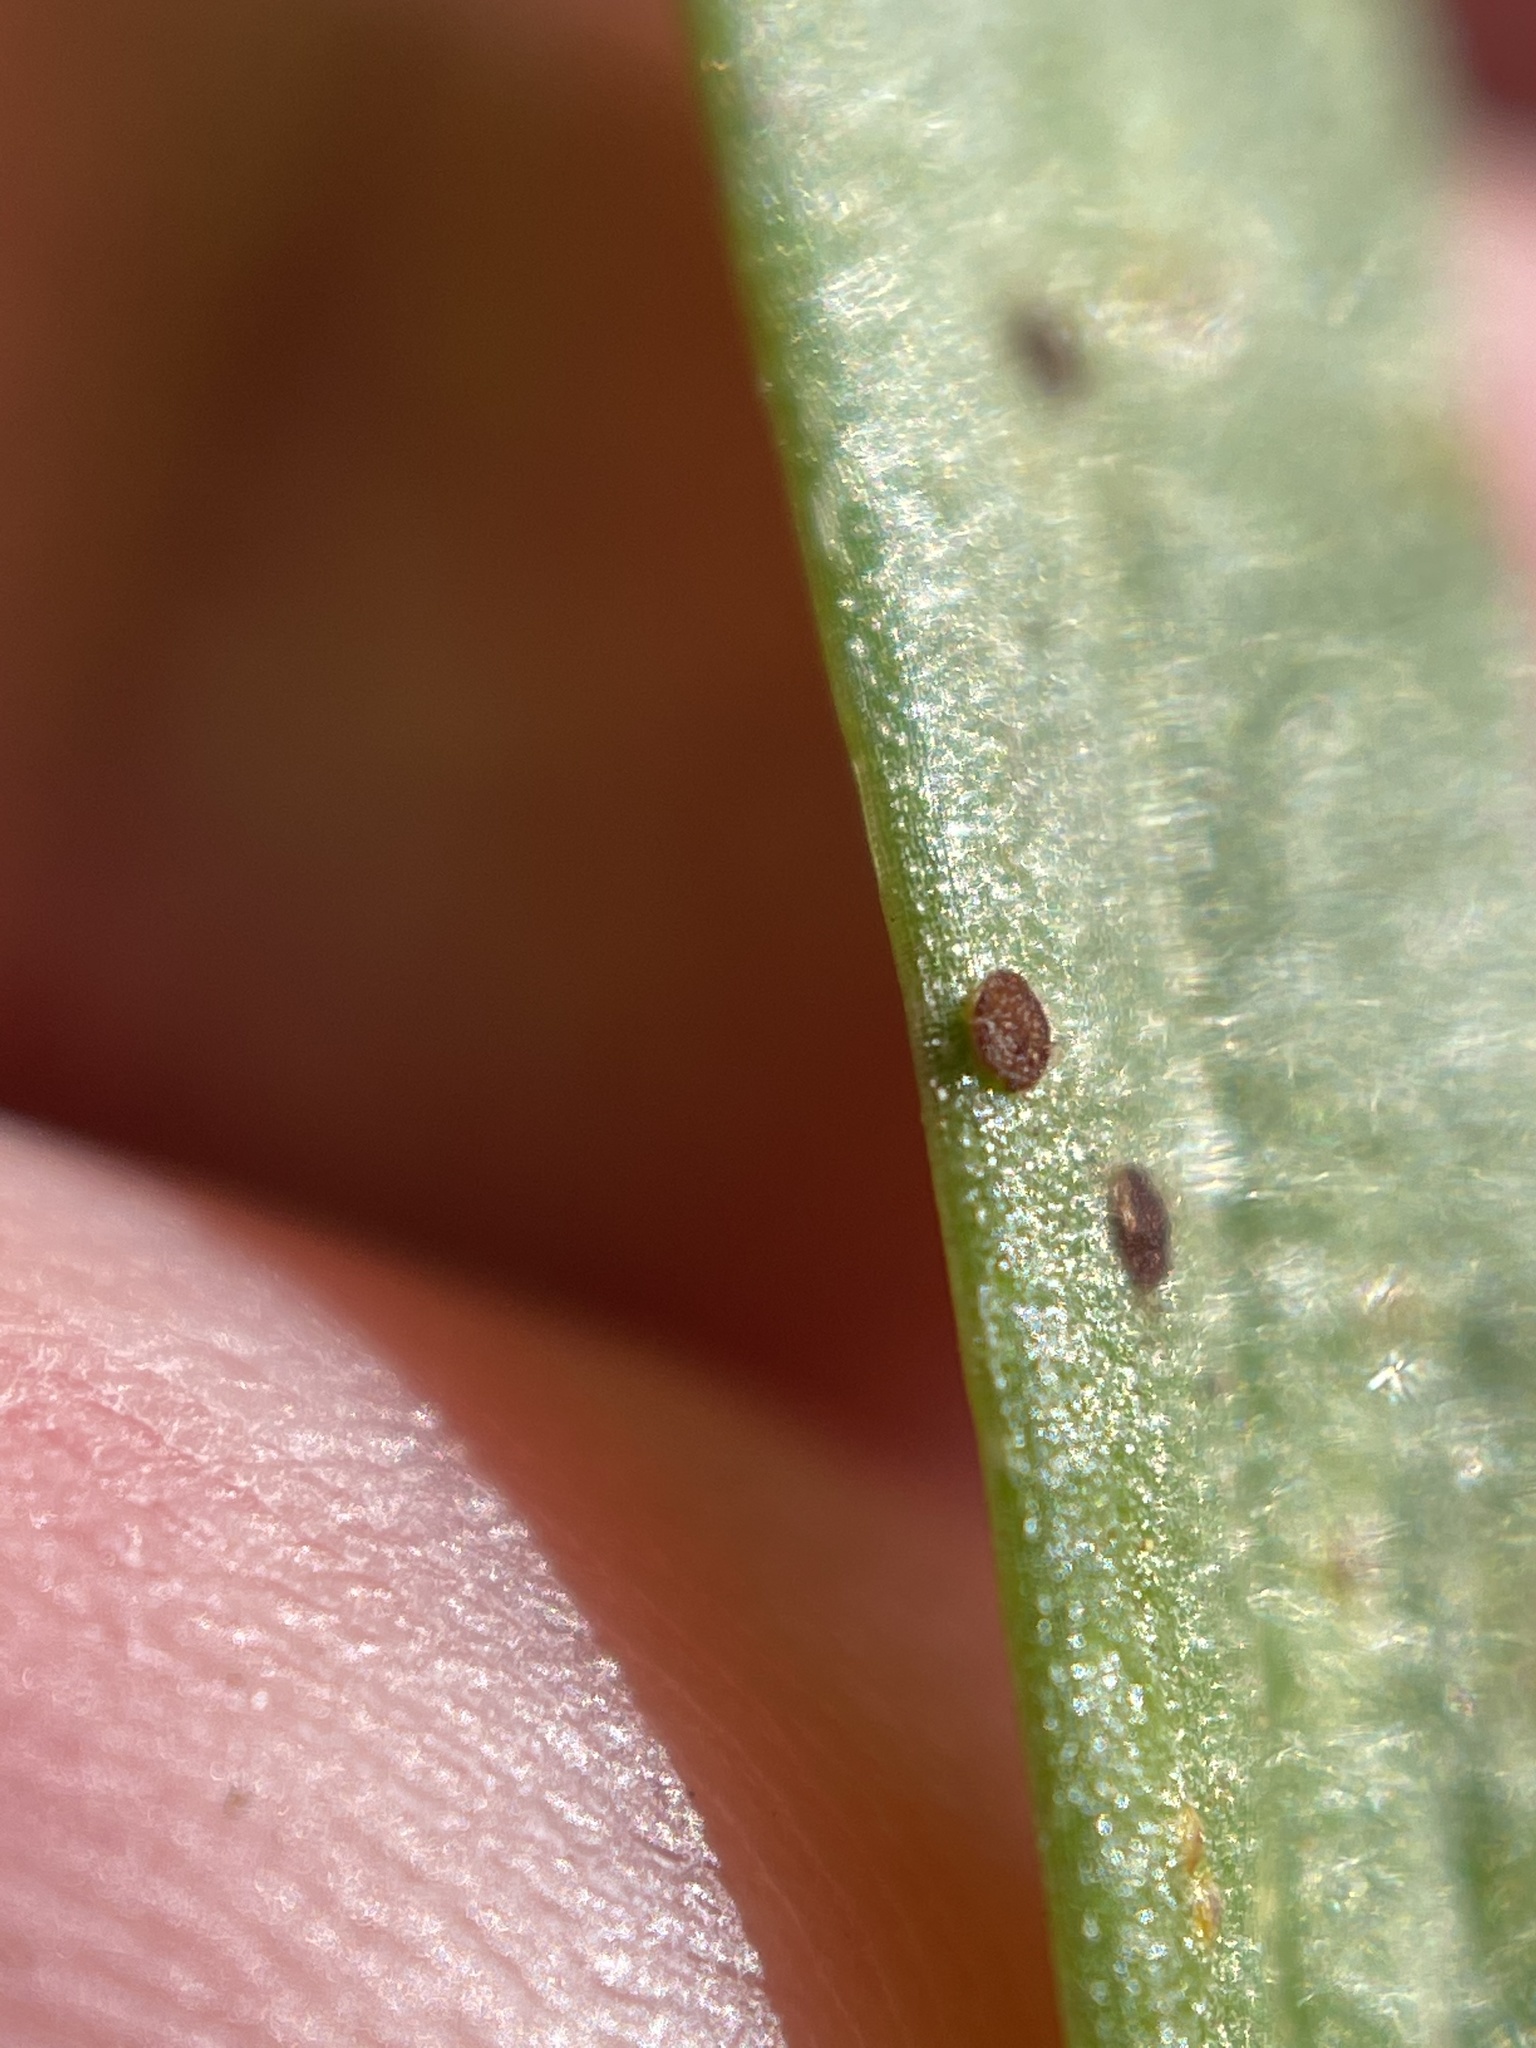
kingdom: Fungi
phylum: Basidiomycota
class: Pucciniomycetes
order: Pucciniales
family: Pucciniaceae
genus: Puccinia
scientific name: Puccinia mariae-wilsoniae
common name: Spring beauty rust
